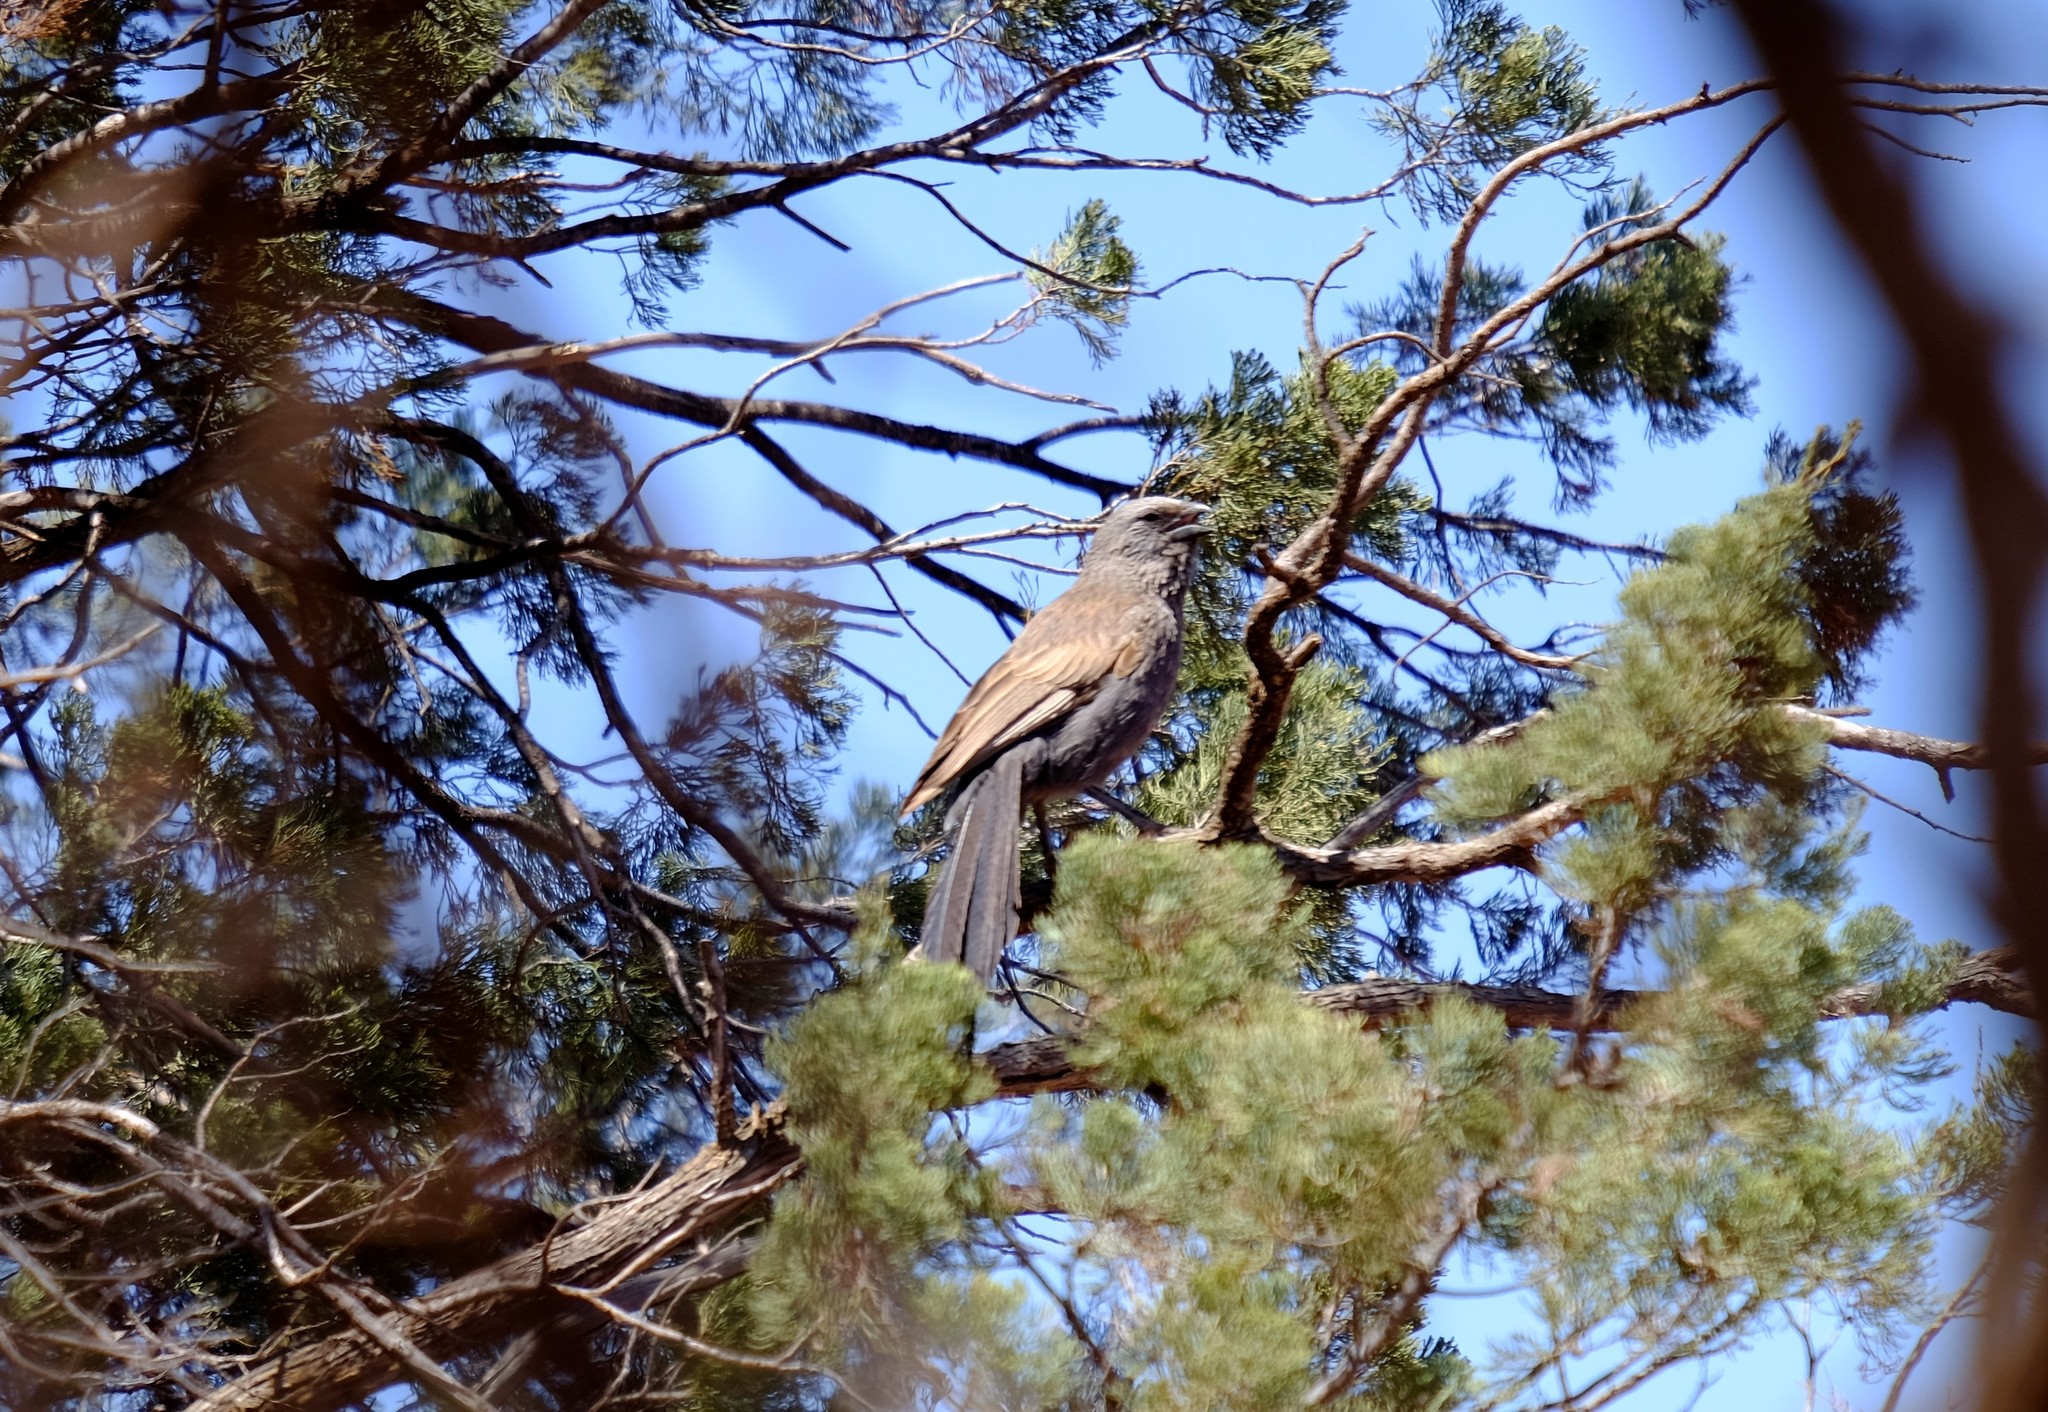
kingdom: Animalia
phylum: Chordata
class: Aves
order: Passeriformes
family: Corcoracidae
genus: Struthidea
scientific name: Struthidea cinerea
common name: Apostlebird
